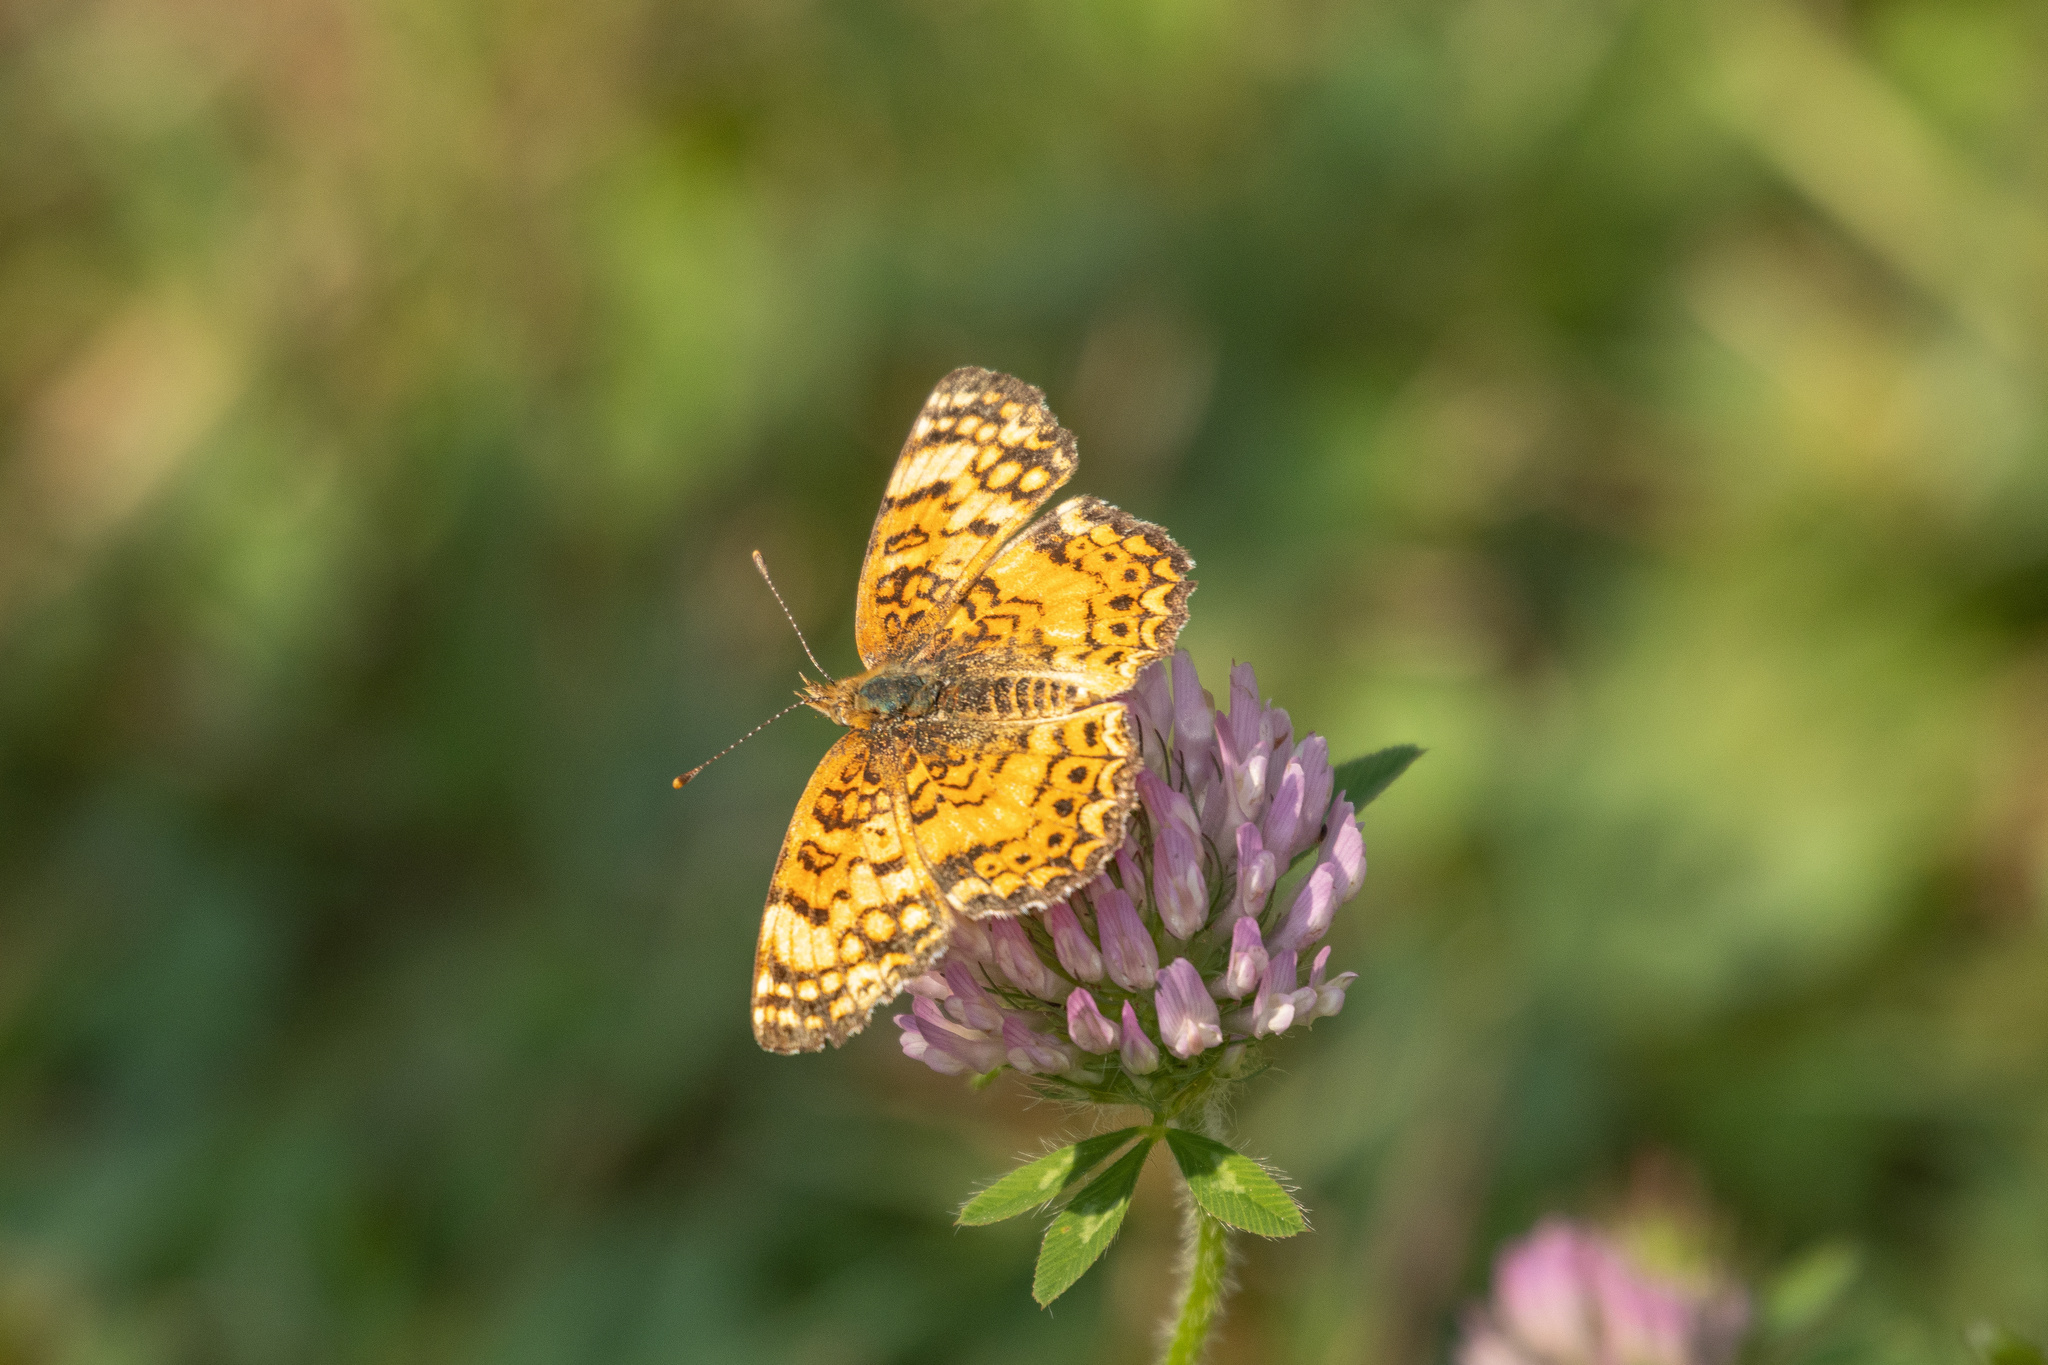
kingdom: Animalia
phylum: Arthropoda
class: Insecta
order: Lepidoptera
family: Nymphalidae
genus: Eresia
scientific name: Eresia aveyrona
